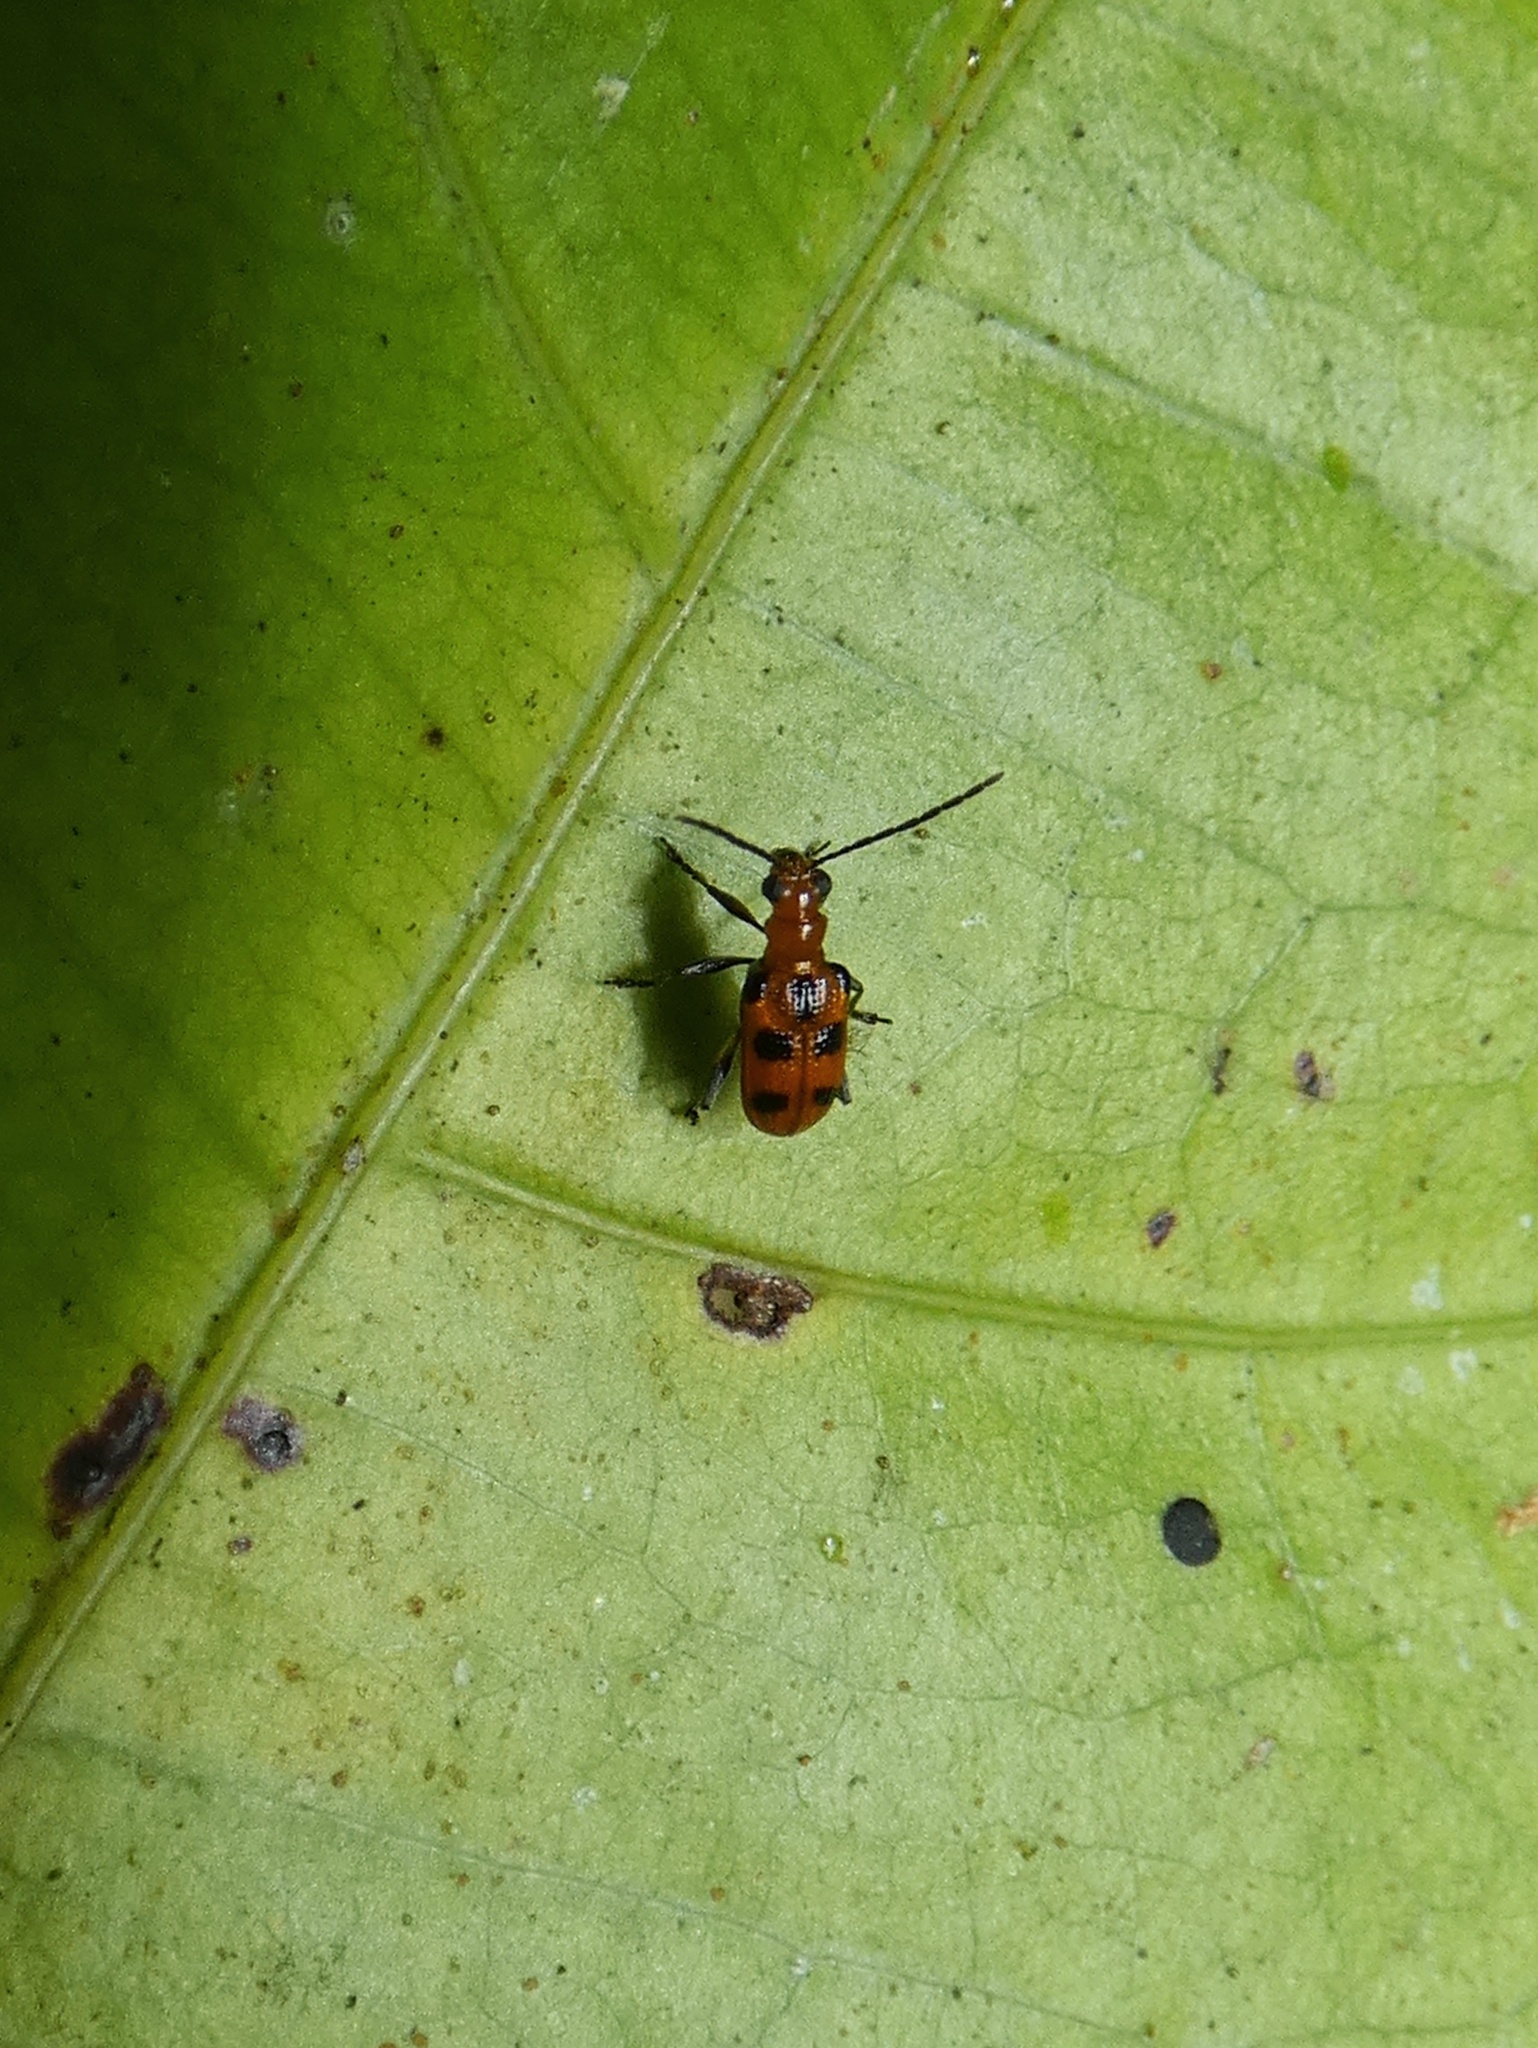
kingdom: Animalia
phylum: Arthropoda
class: Insecta
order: Coleoptera
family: Chrysomelidae
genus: Neolema
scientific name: Neolema sexpunctata
